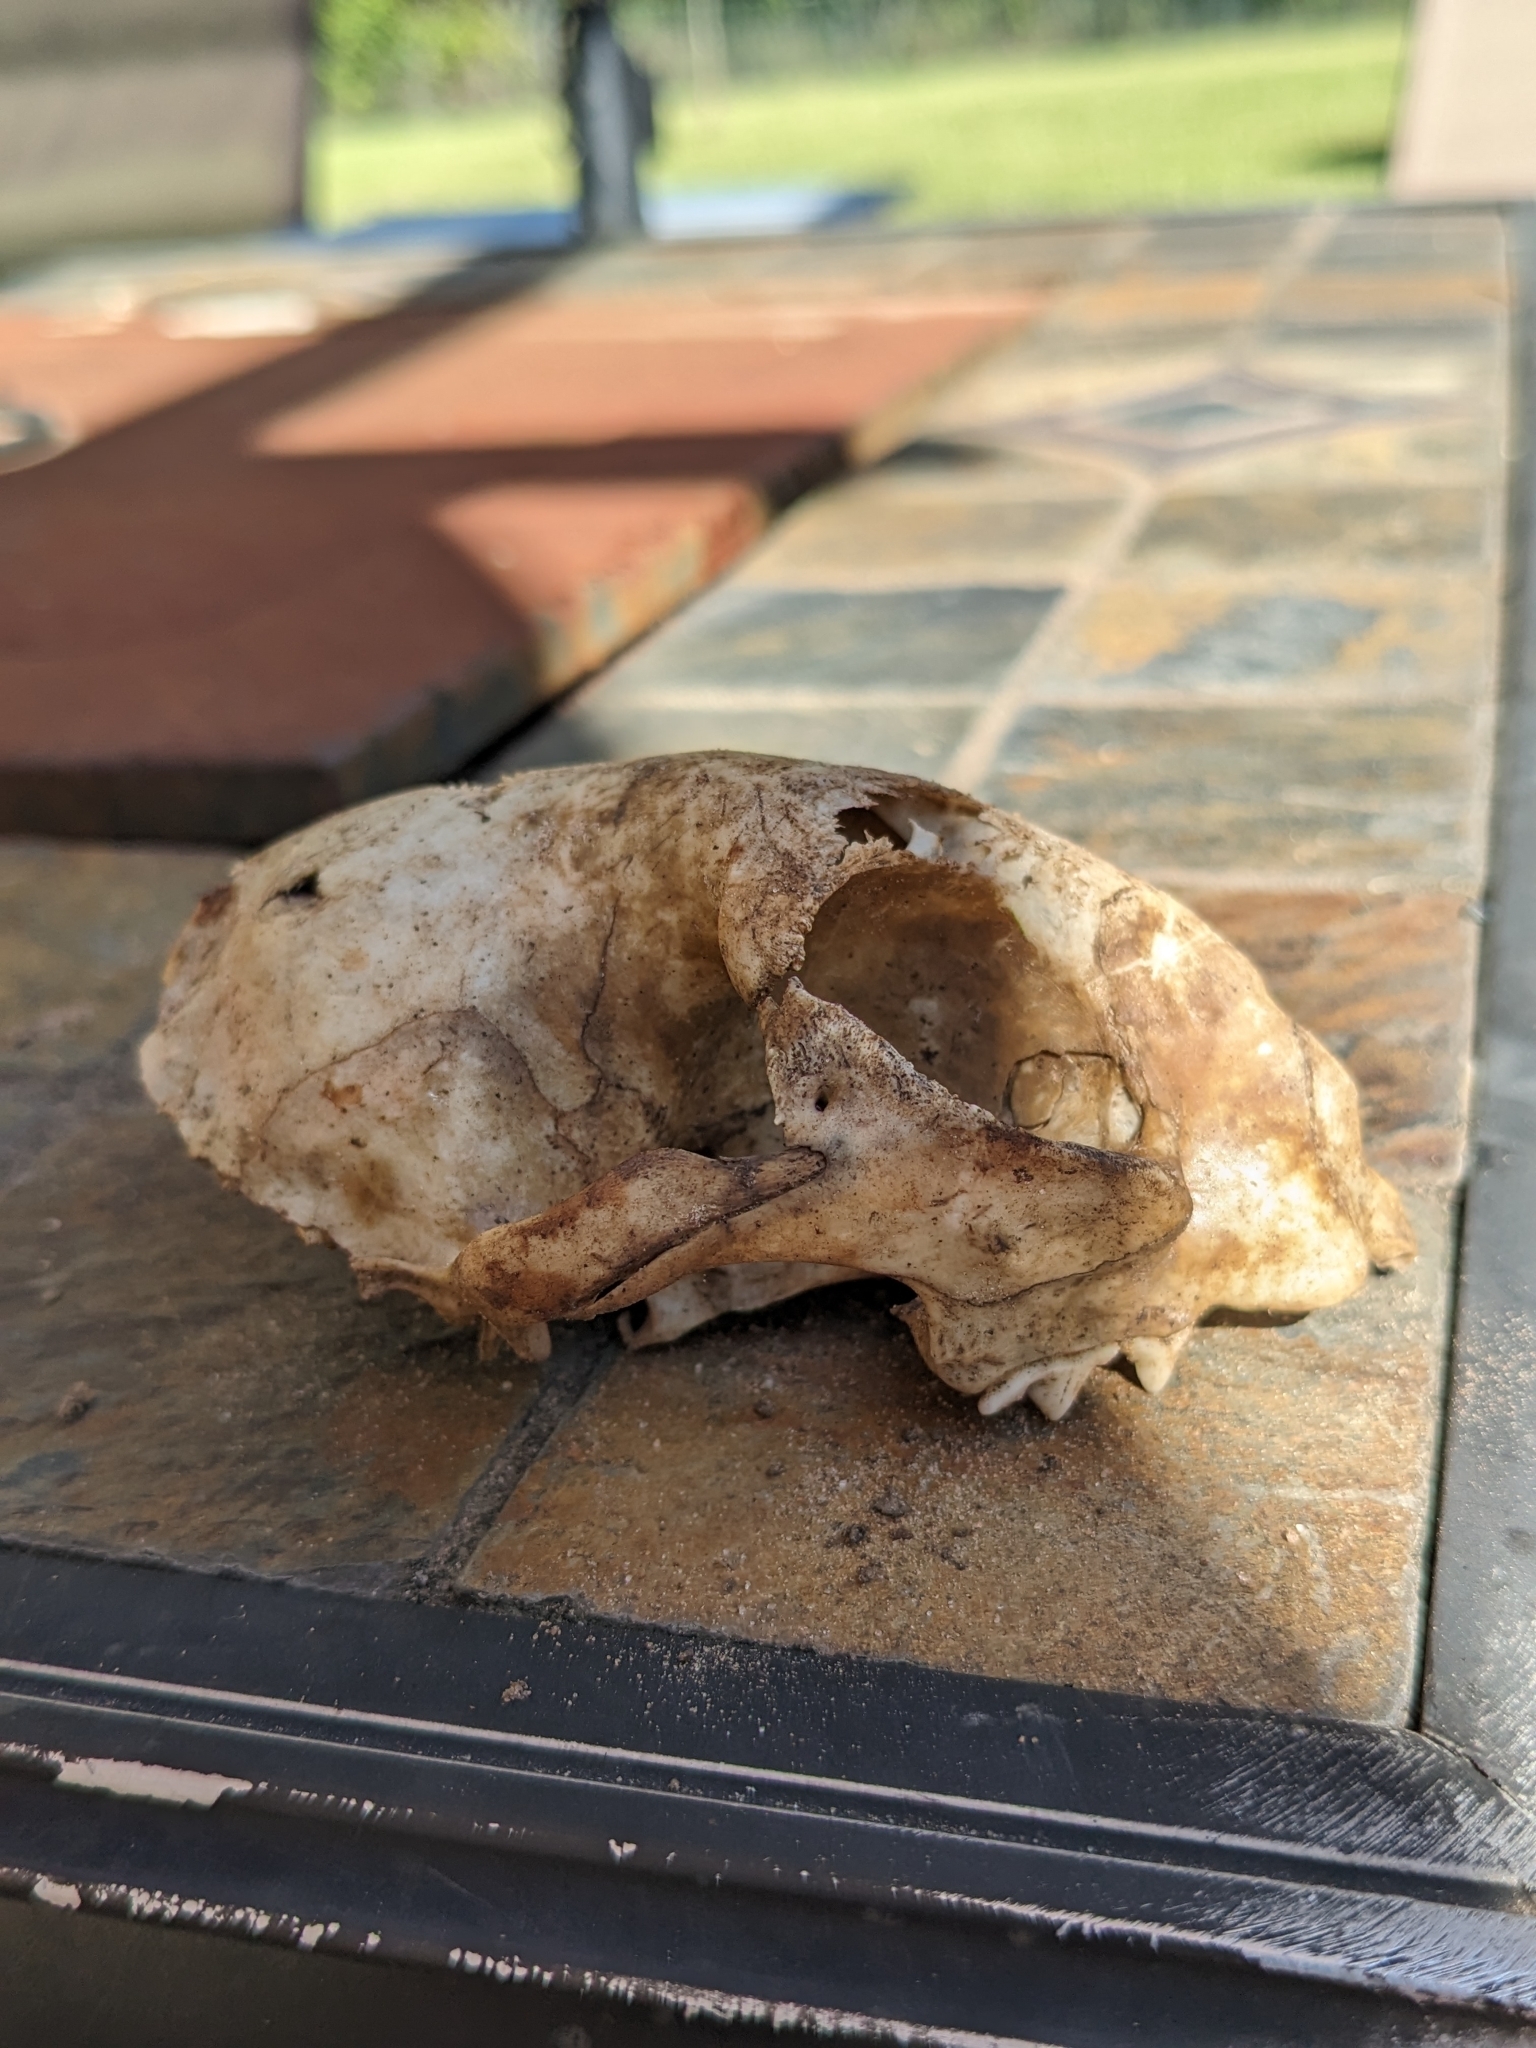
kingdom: Animalia
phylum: Chordata
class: Mammalia
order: Carnivora
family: Felidae
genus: Felis
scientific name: Felis catus
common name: Domestic cat
